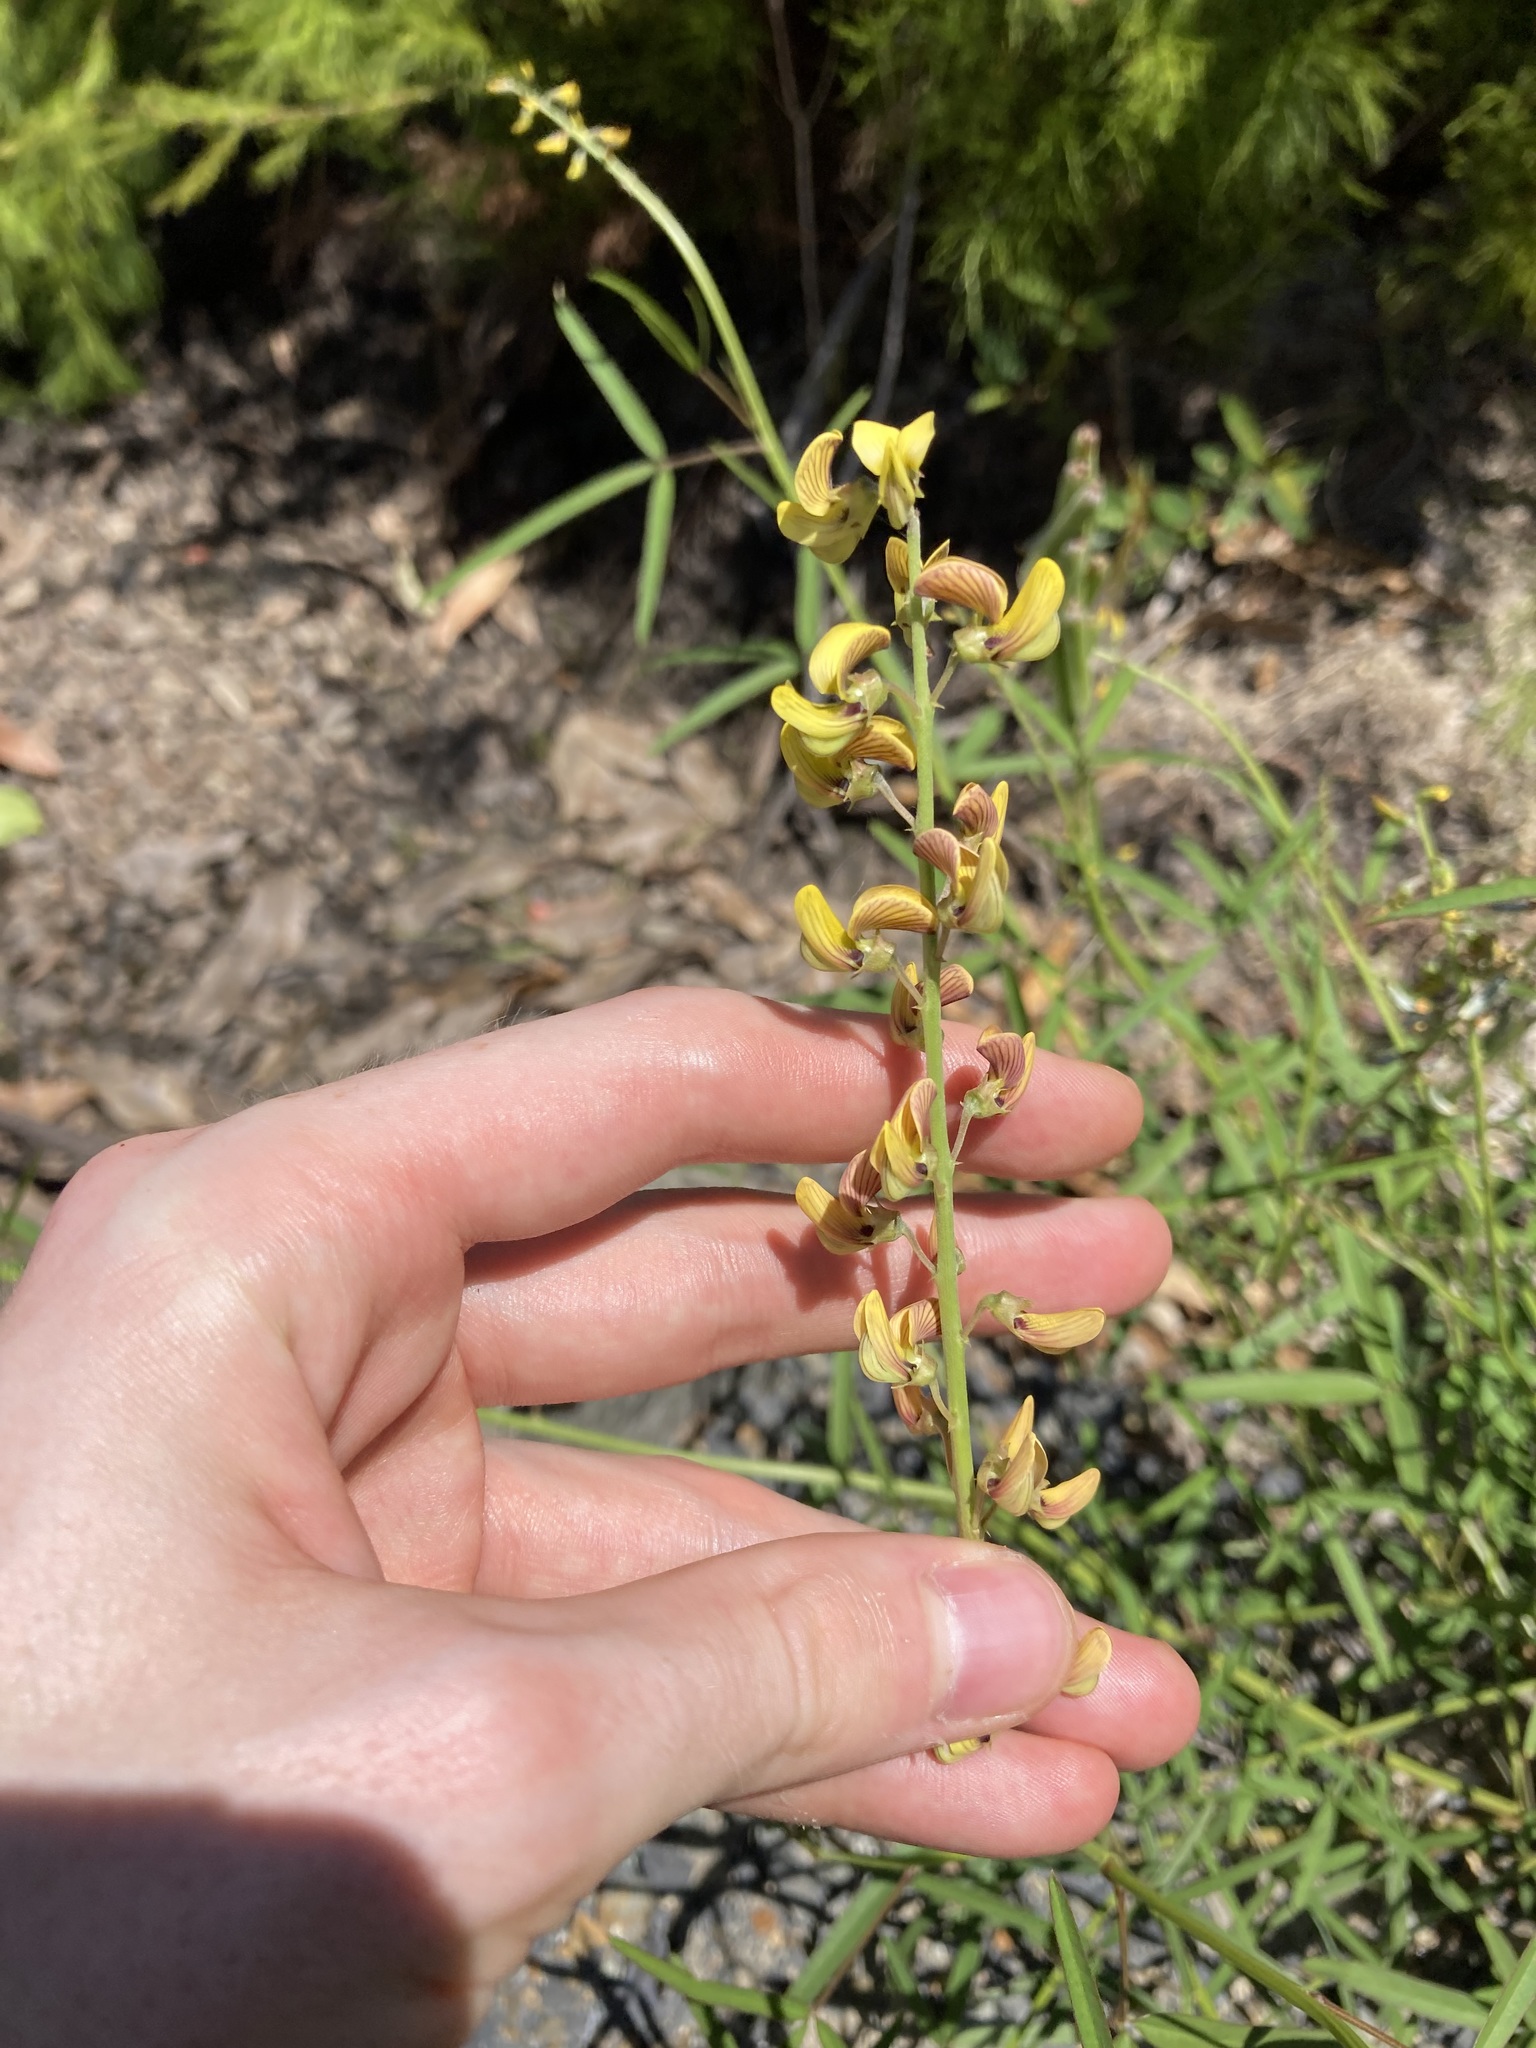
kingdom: Plantae
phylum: Tracheophyta
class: Magnoliopsida
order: Fabales
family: Fabaceae
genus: Crotalaria
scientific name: Crotalaria lanceolata
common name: Lanceleaf rattlebox
